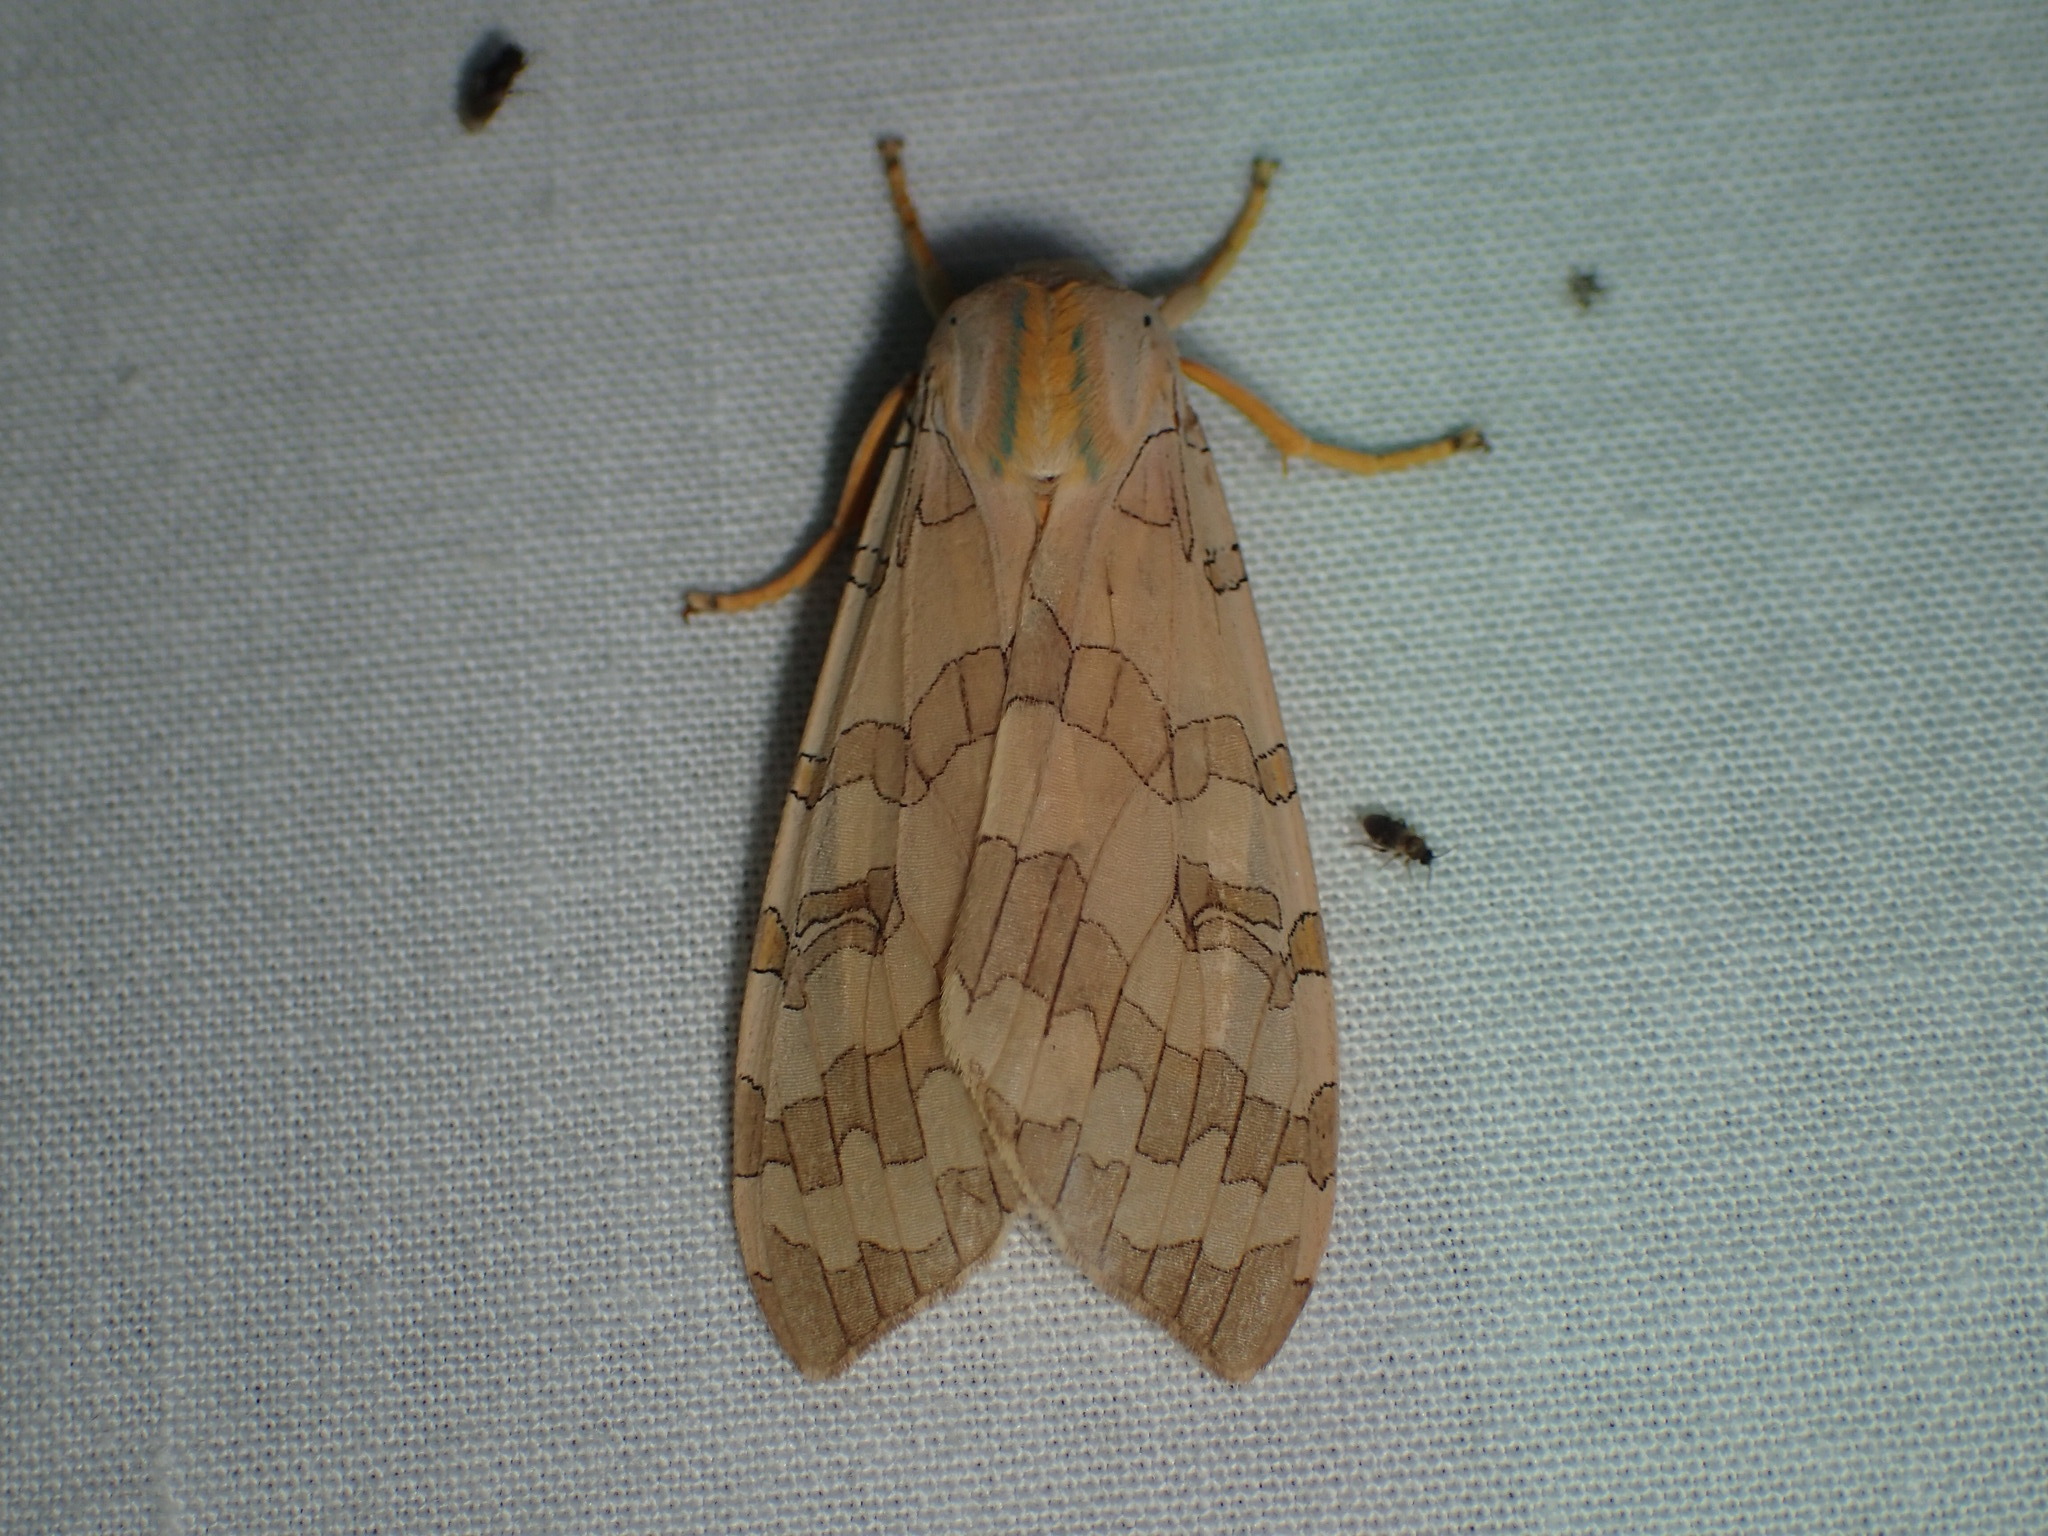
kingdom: Animalia
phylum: Arthropoda
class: Insecta
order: Lepidoptera
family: Erebidae
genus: Halysidota
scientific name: Halysidota
